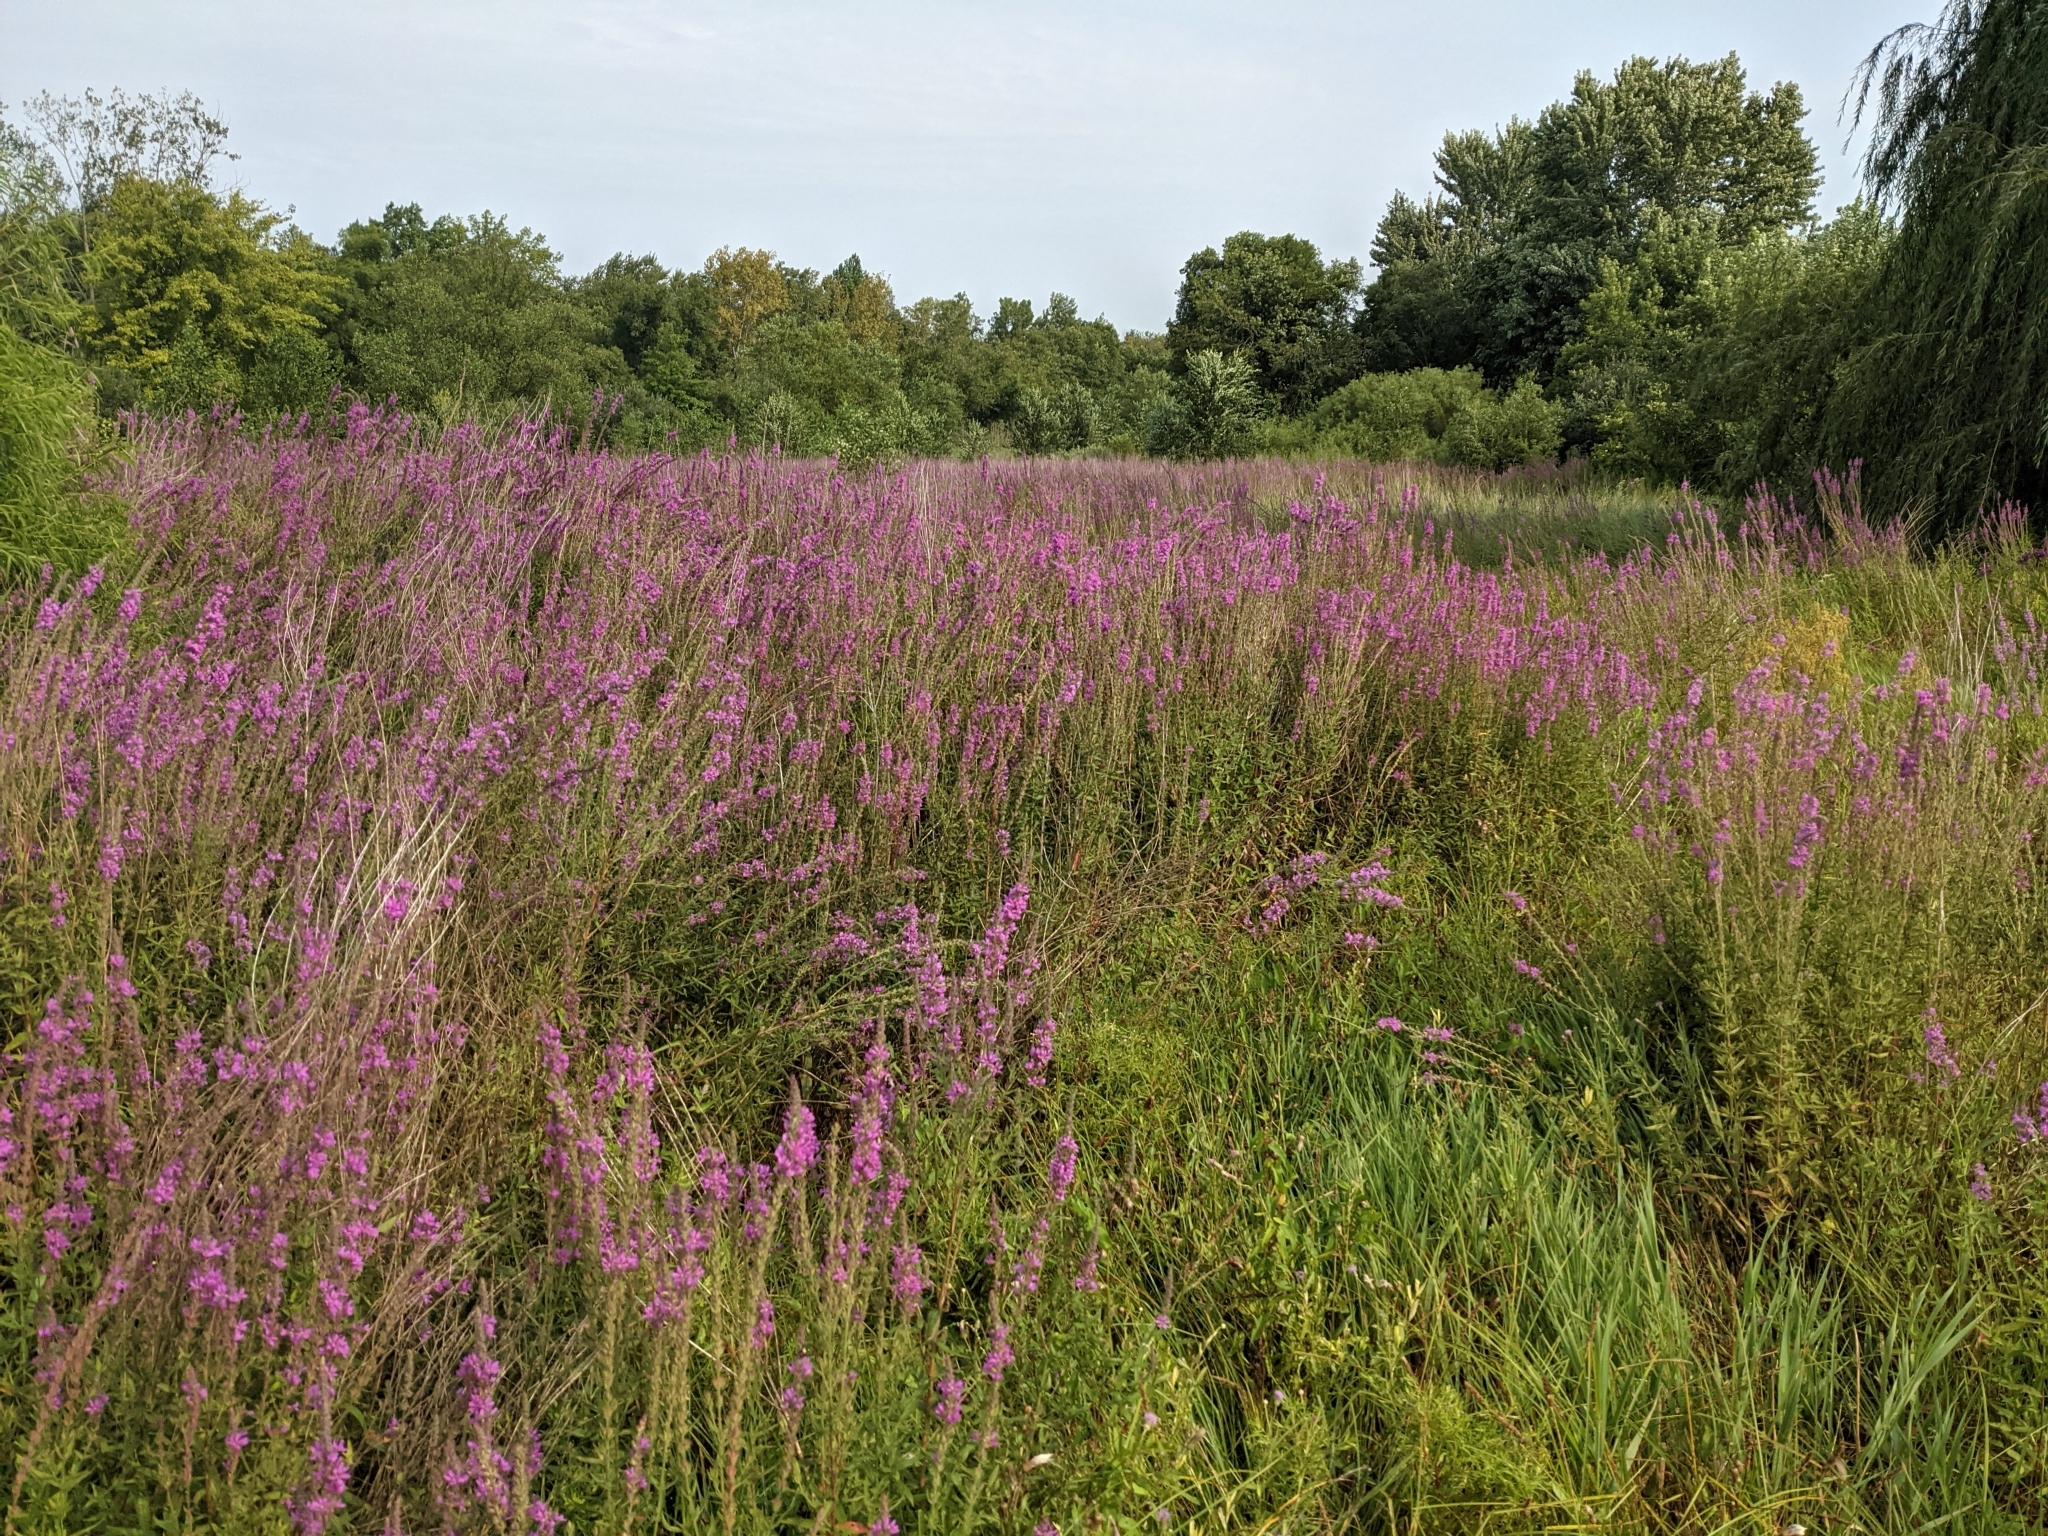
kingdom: Plantae
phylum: Tracheophyta
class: Magnoliopsida
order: Myrtales
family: Lythraceae
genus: Lythrum
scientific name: Lythrum salicaria
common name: Purple loosestrife
